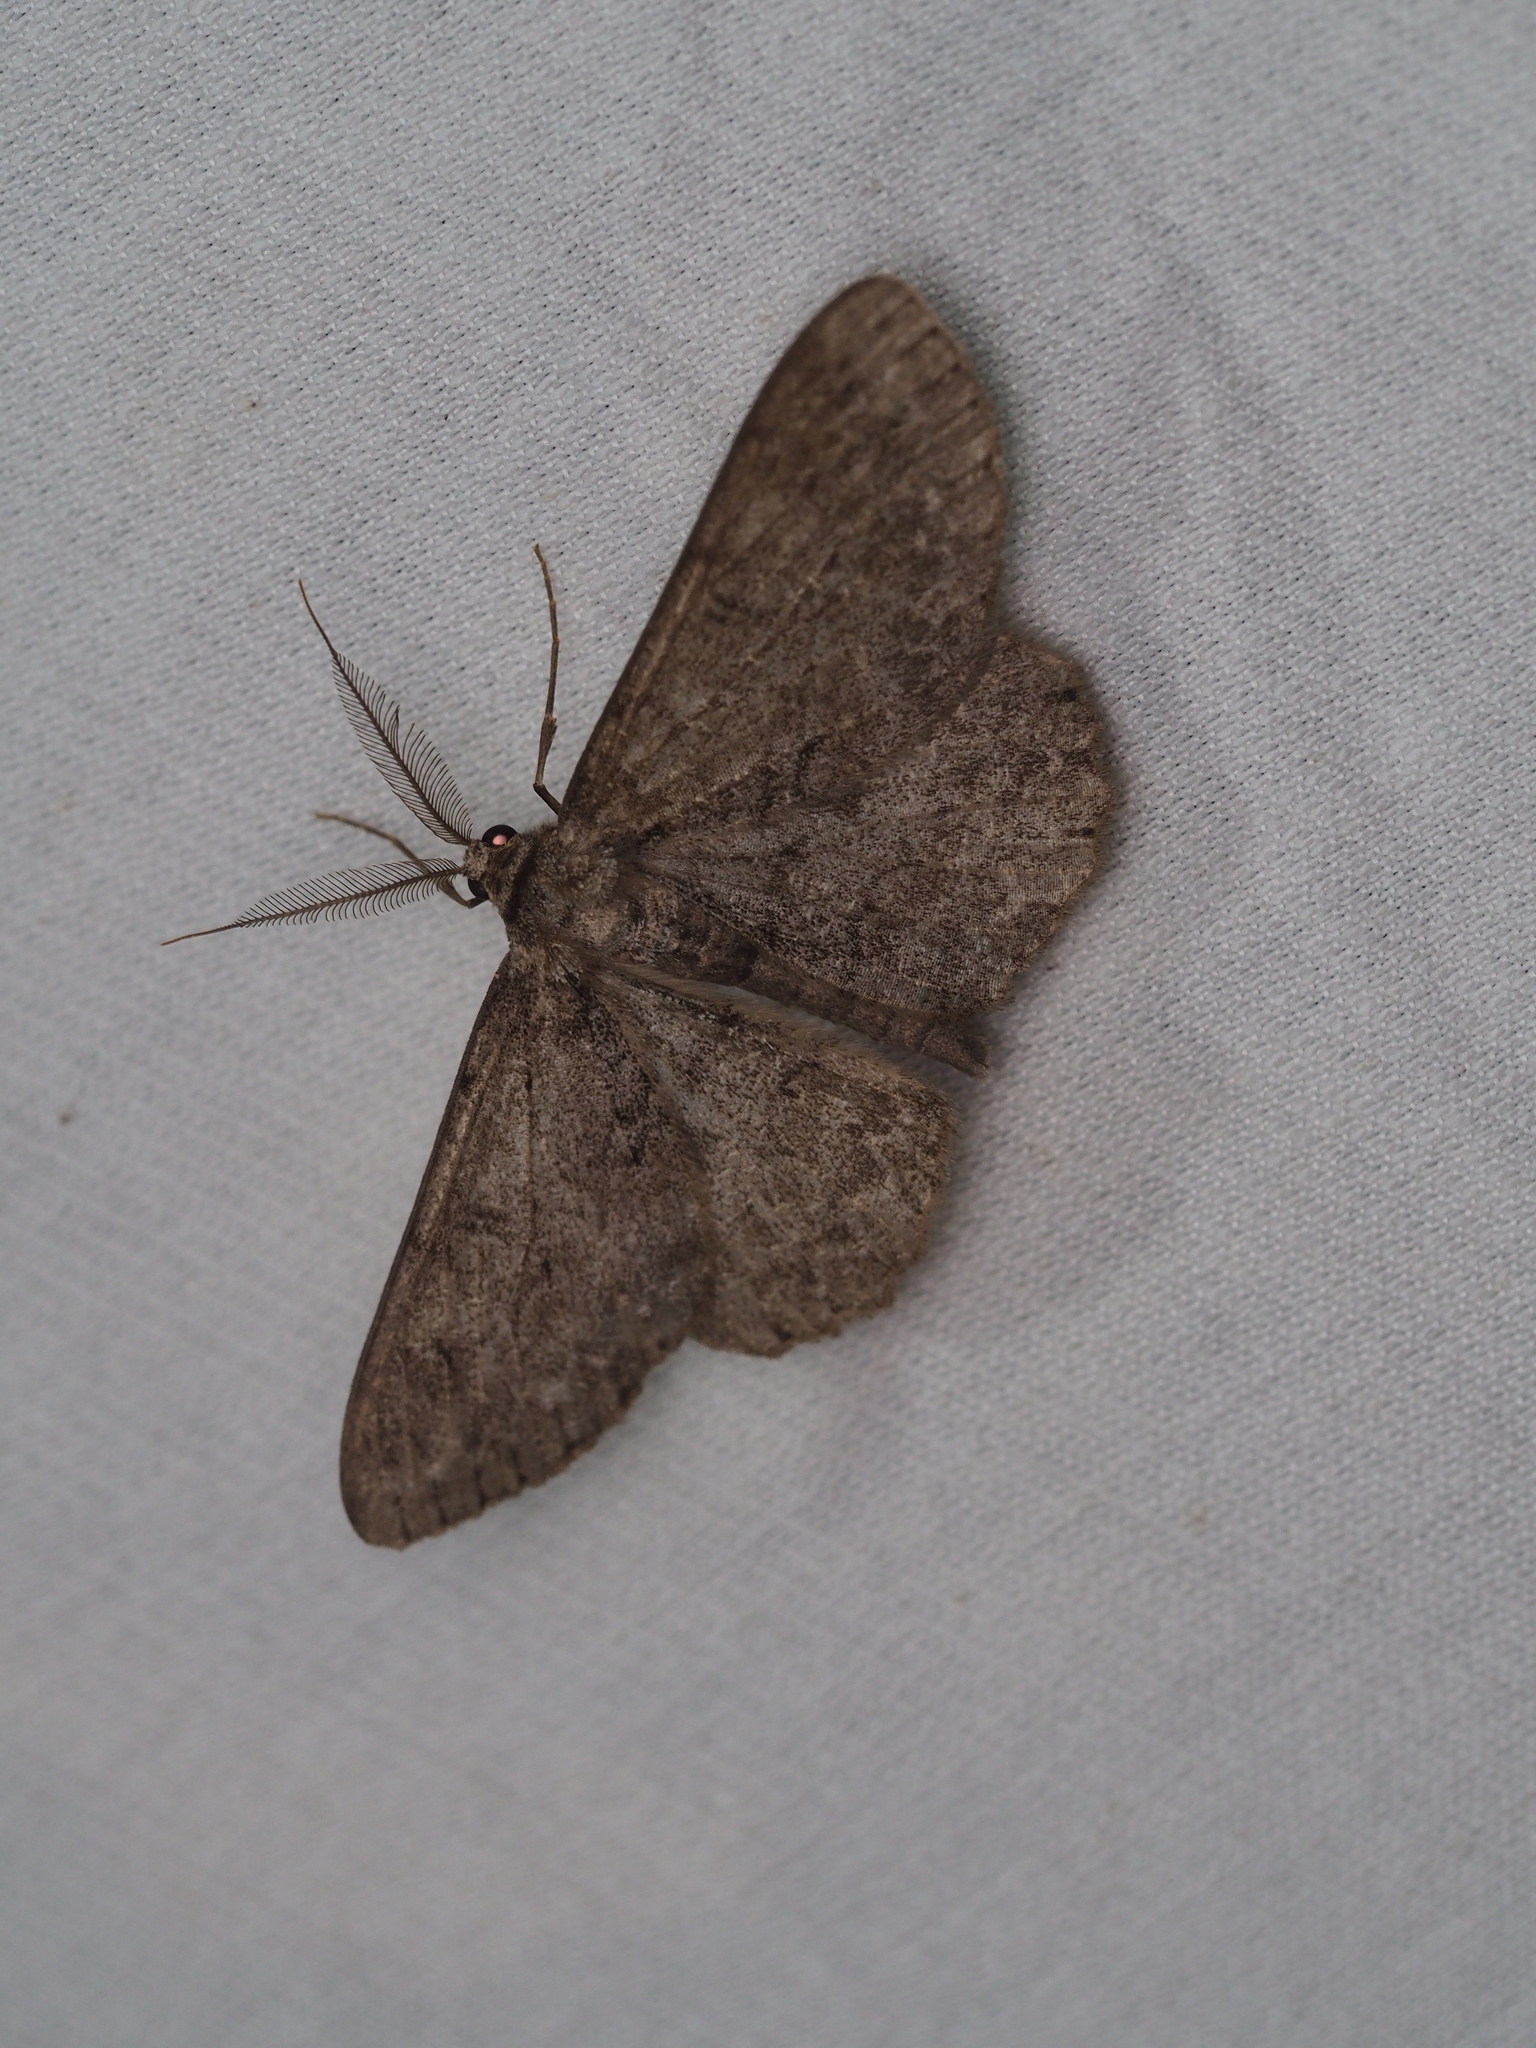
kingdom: Animalia
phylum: Arthropoda
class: Insecta
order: Lepidoptera
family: Geometridae
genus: Hypomecis
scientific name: Hypomecis punctinalis
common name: Pale oak beauty
